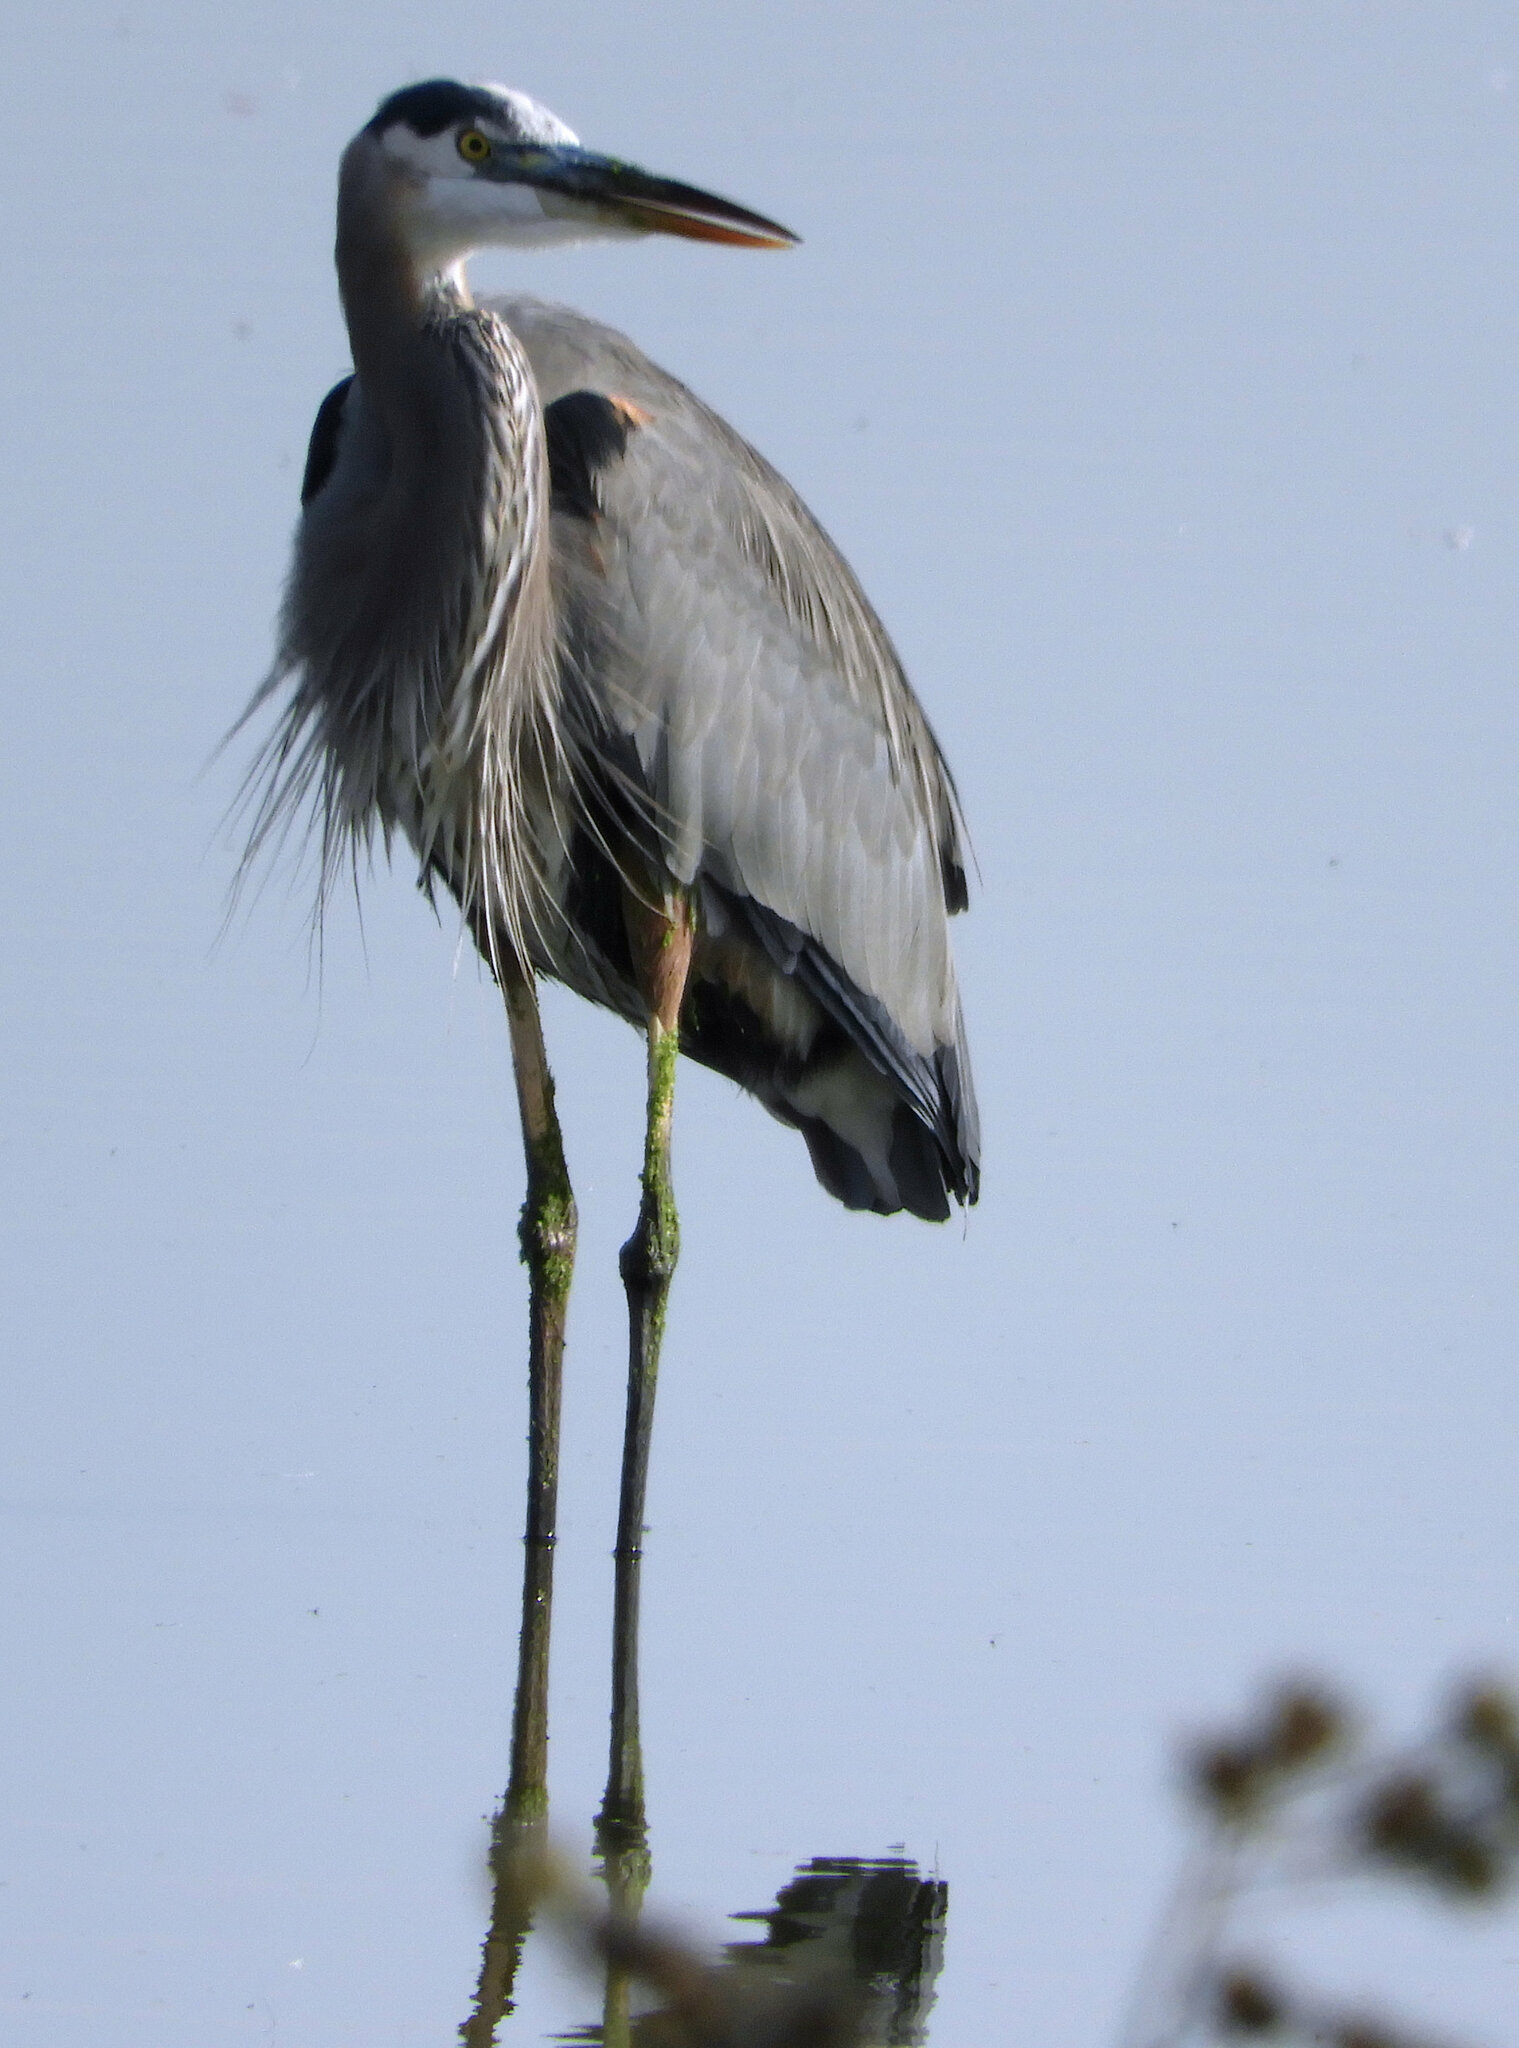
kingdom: Animalia
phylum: Chordata
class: Aves
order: Pelecaniformes
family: Ardeidae
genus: Ardea
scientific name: Ardea herodias
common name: Great blue heron
